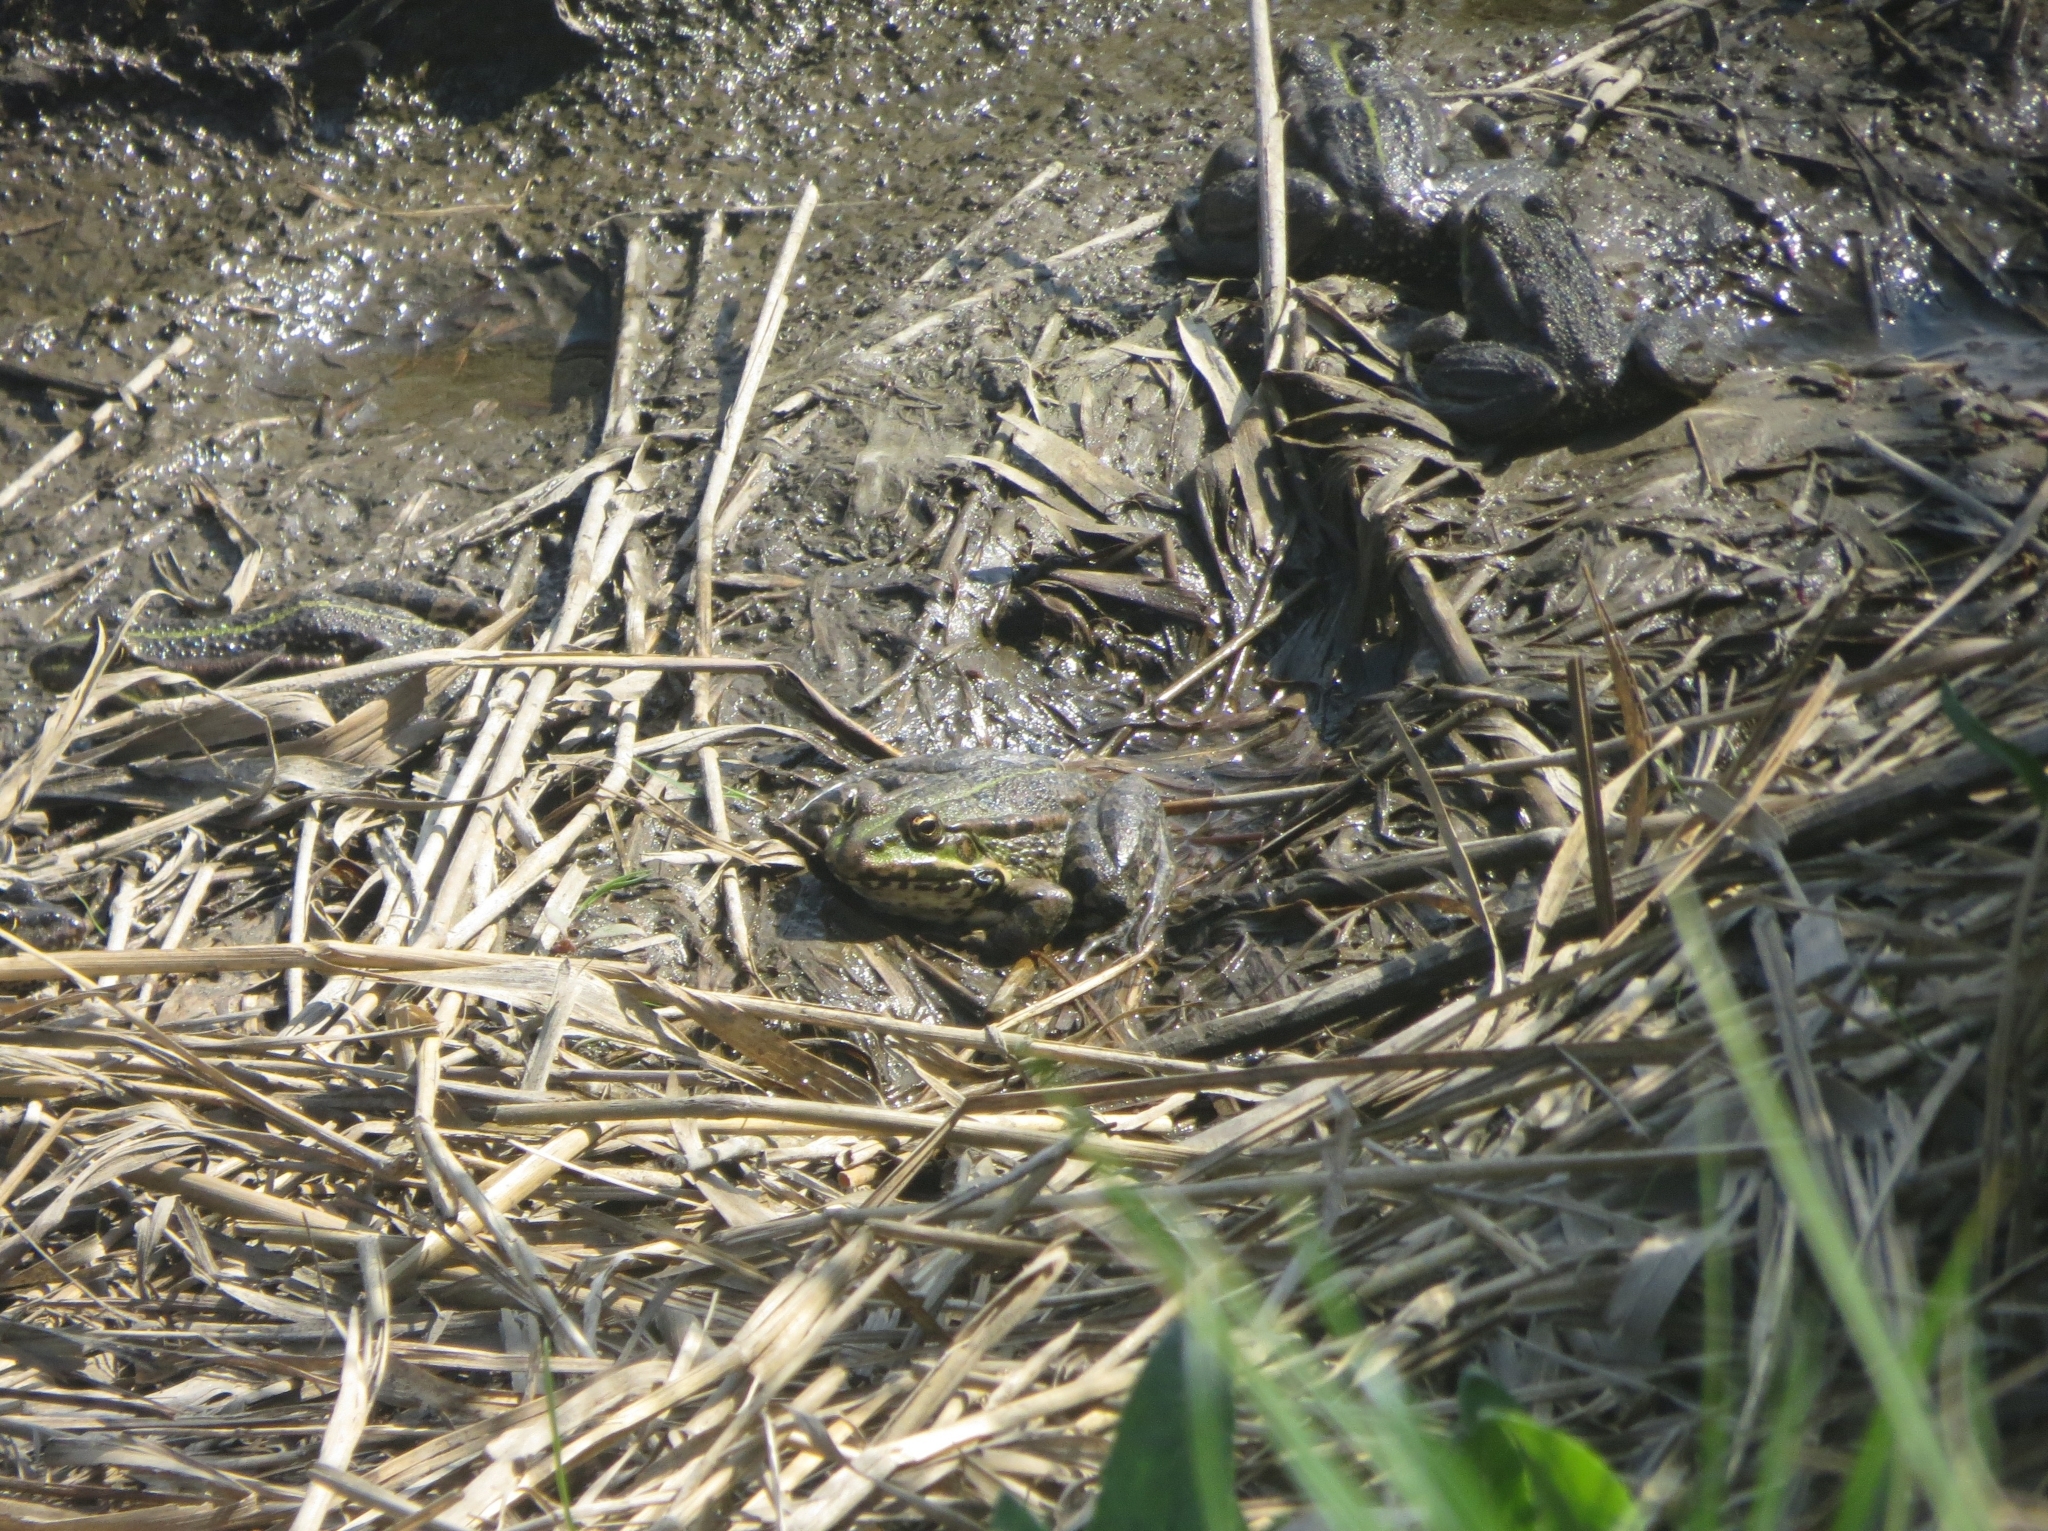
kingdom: Animalia
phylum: Chordata
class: Amphibia
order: Anura
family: Ranidae
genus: Pelophylax
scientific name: Pelophylax ridibundus
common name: Marsh frog
